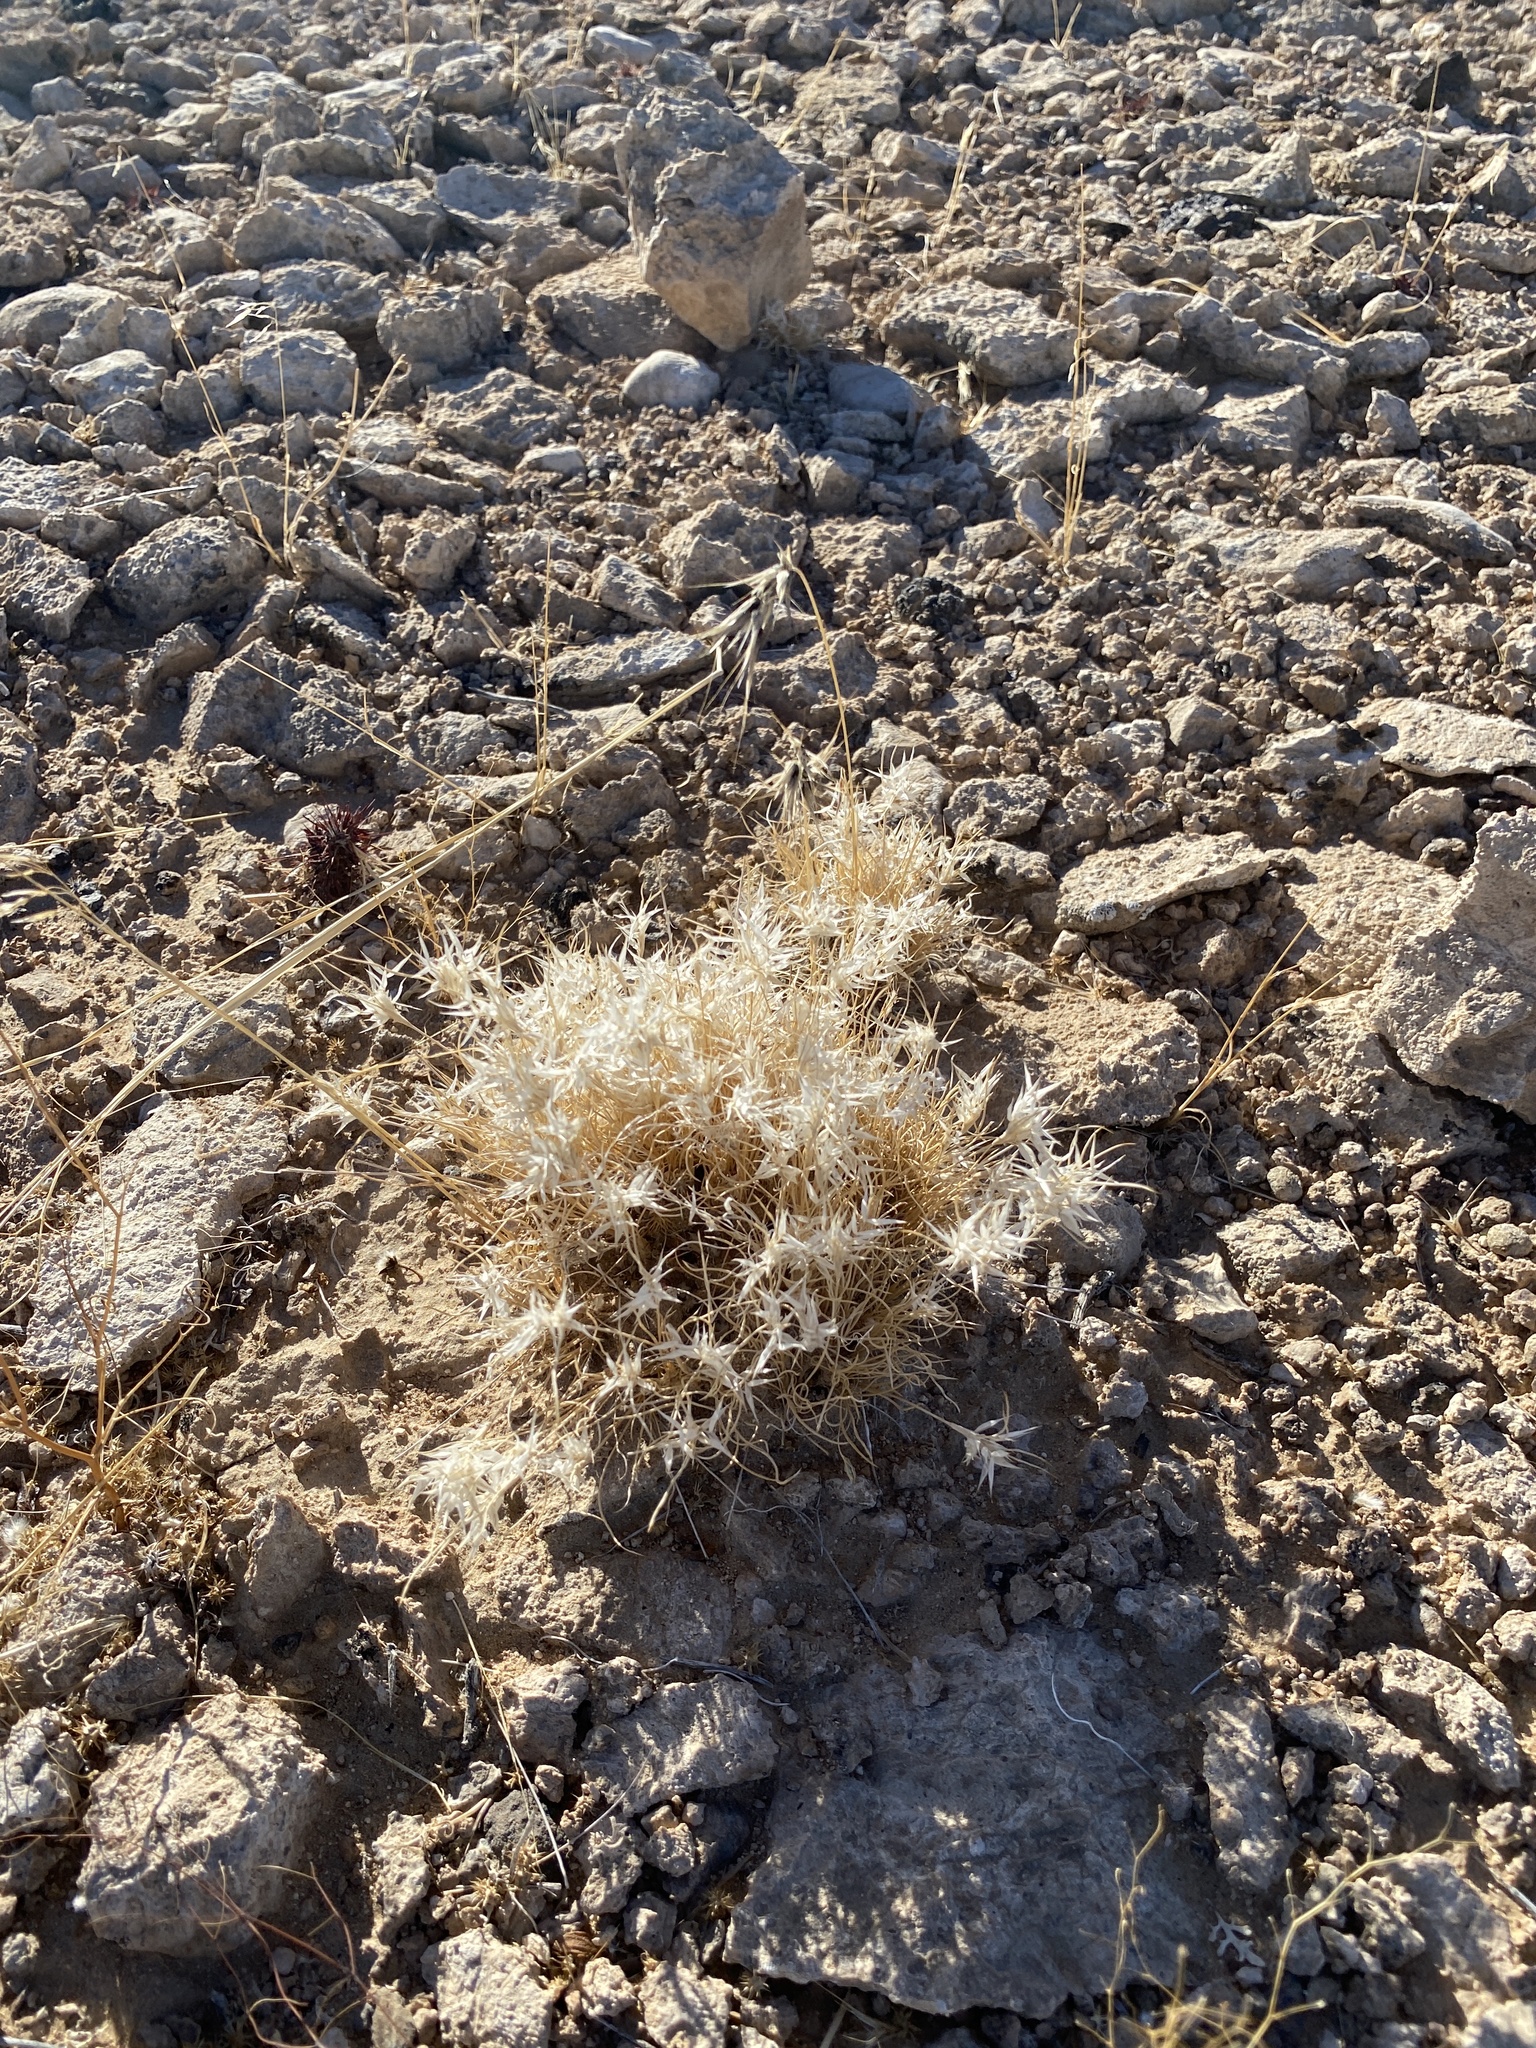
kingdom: Plantae
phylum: Tracheophyta
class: Liliopsida
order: Poales
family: Poaceae
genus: Dasyochloa
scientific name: Dasyochloa pulchella
